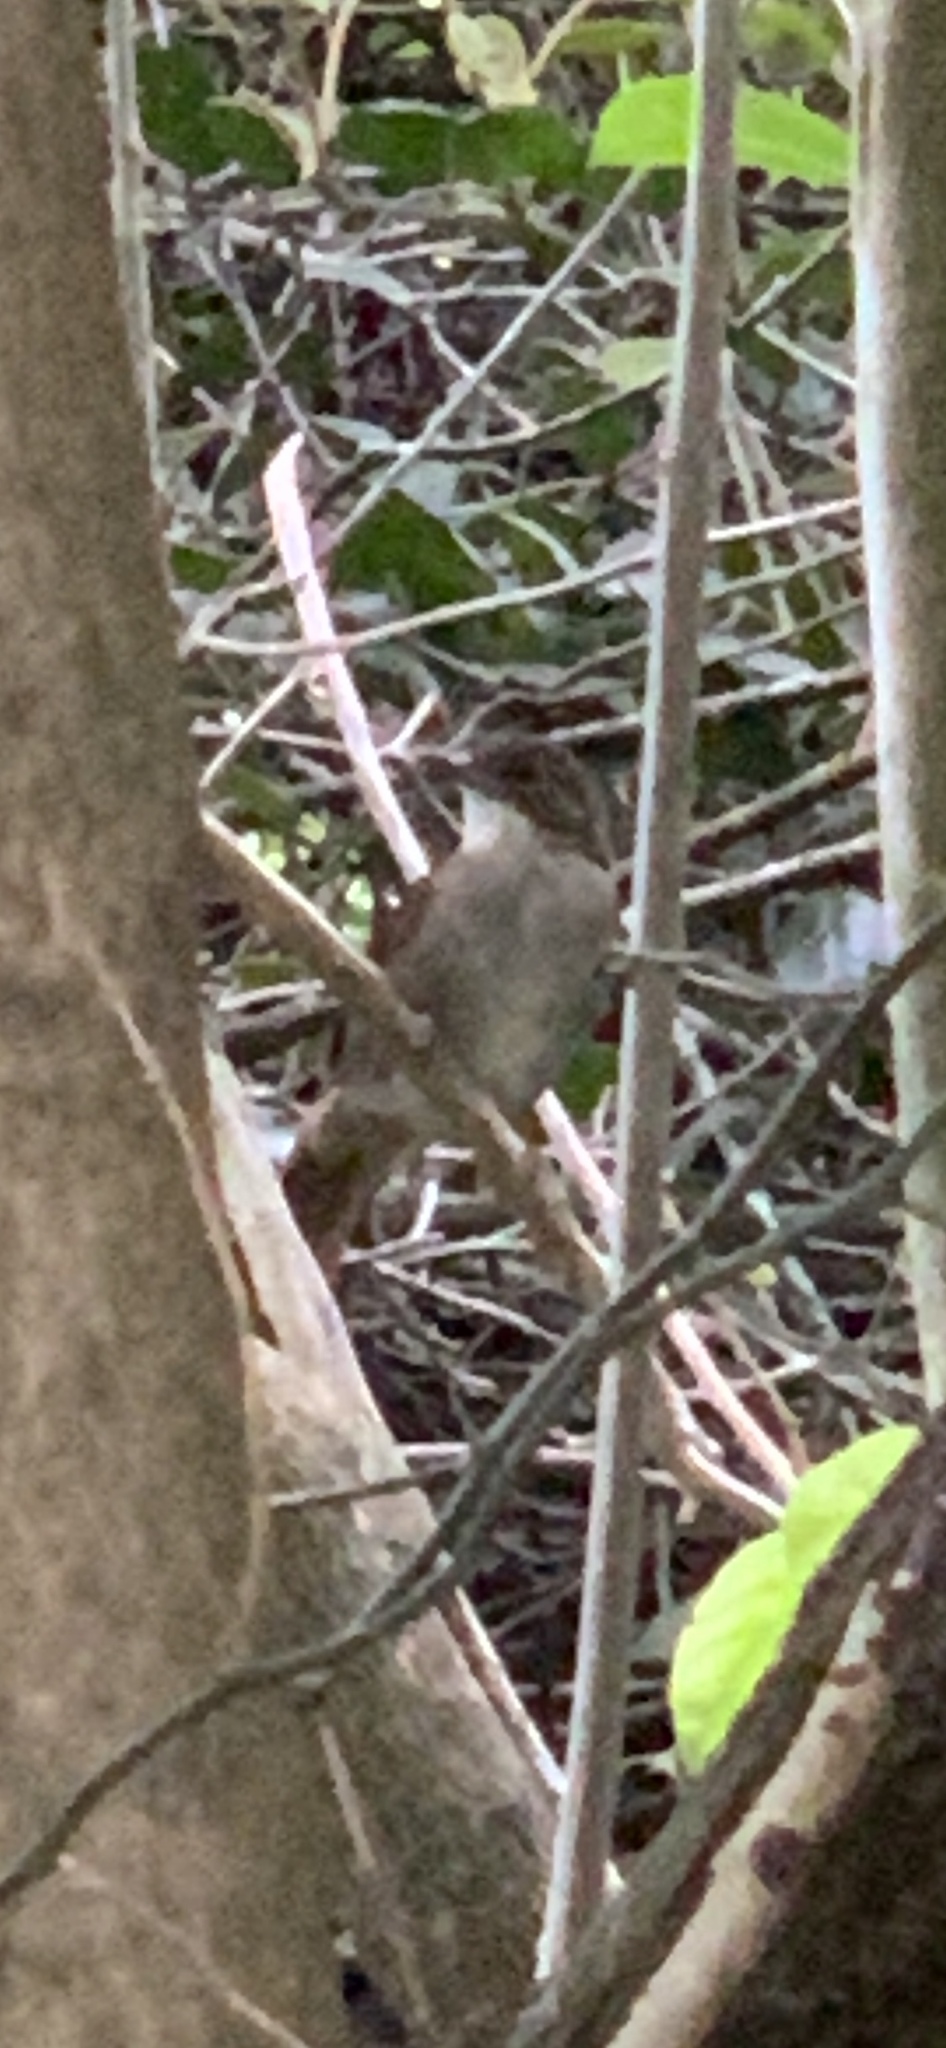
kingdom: Animalia
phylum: Chordata
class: Aves
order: Passeriformes
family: Pycnonotidae
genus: Phyllastrephus
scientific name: Phyllastrephus terrestris
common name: Terrestrial brownbul
